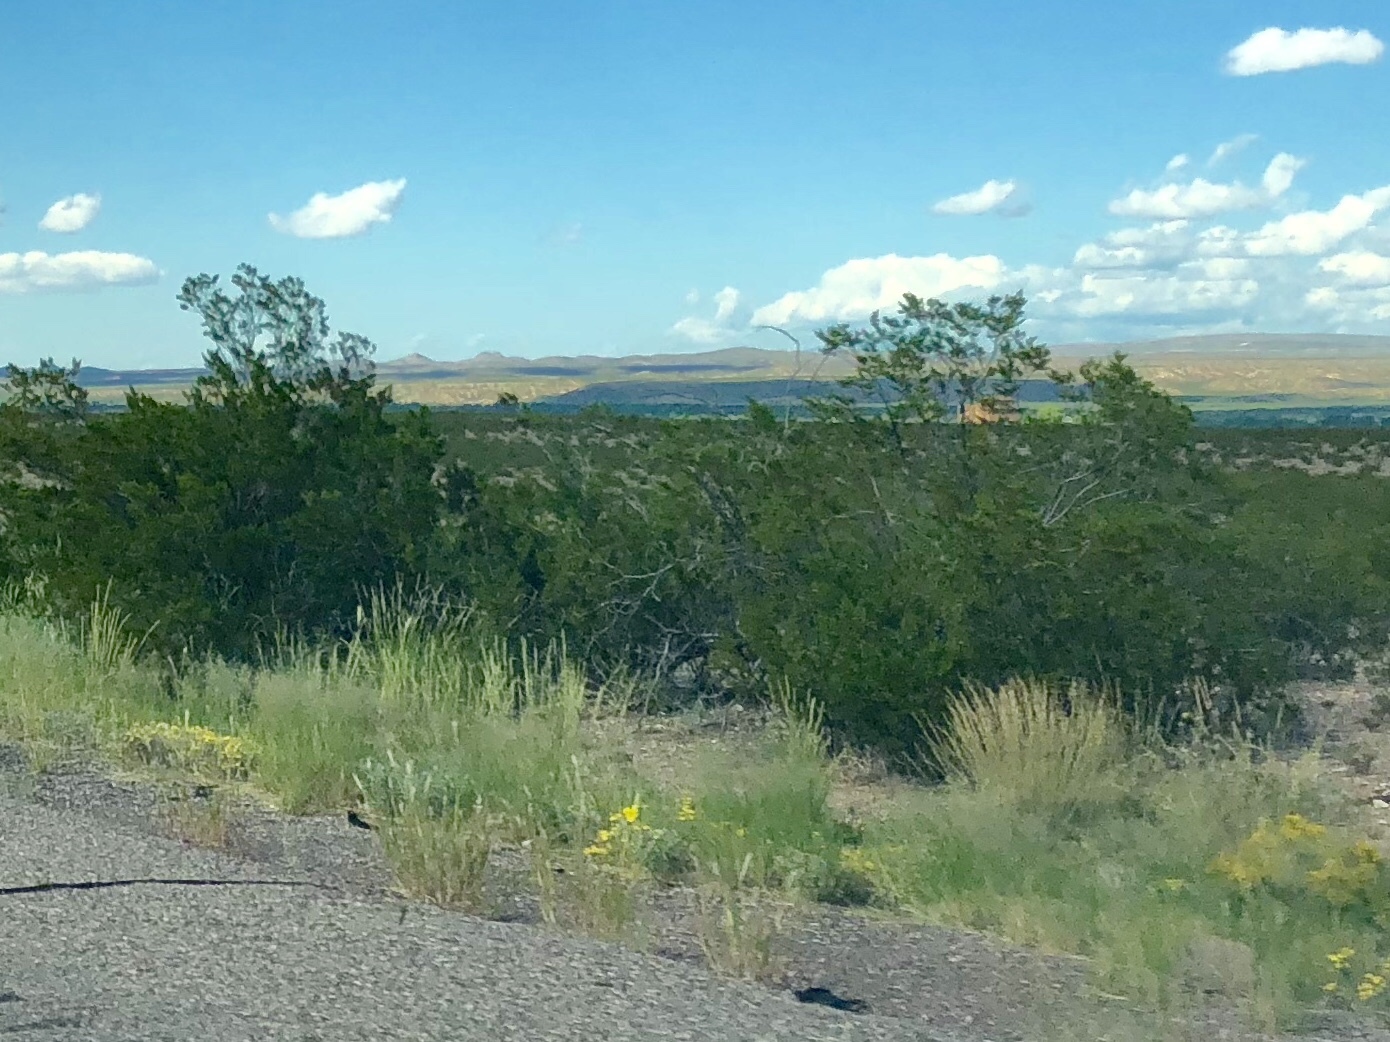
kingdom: Plantae
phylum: Tracheophyta
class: Magnoliopsida
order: Zygophyllales
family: Zygophyllaceae
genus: Larrea
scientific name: Larrea tridentata
